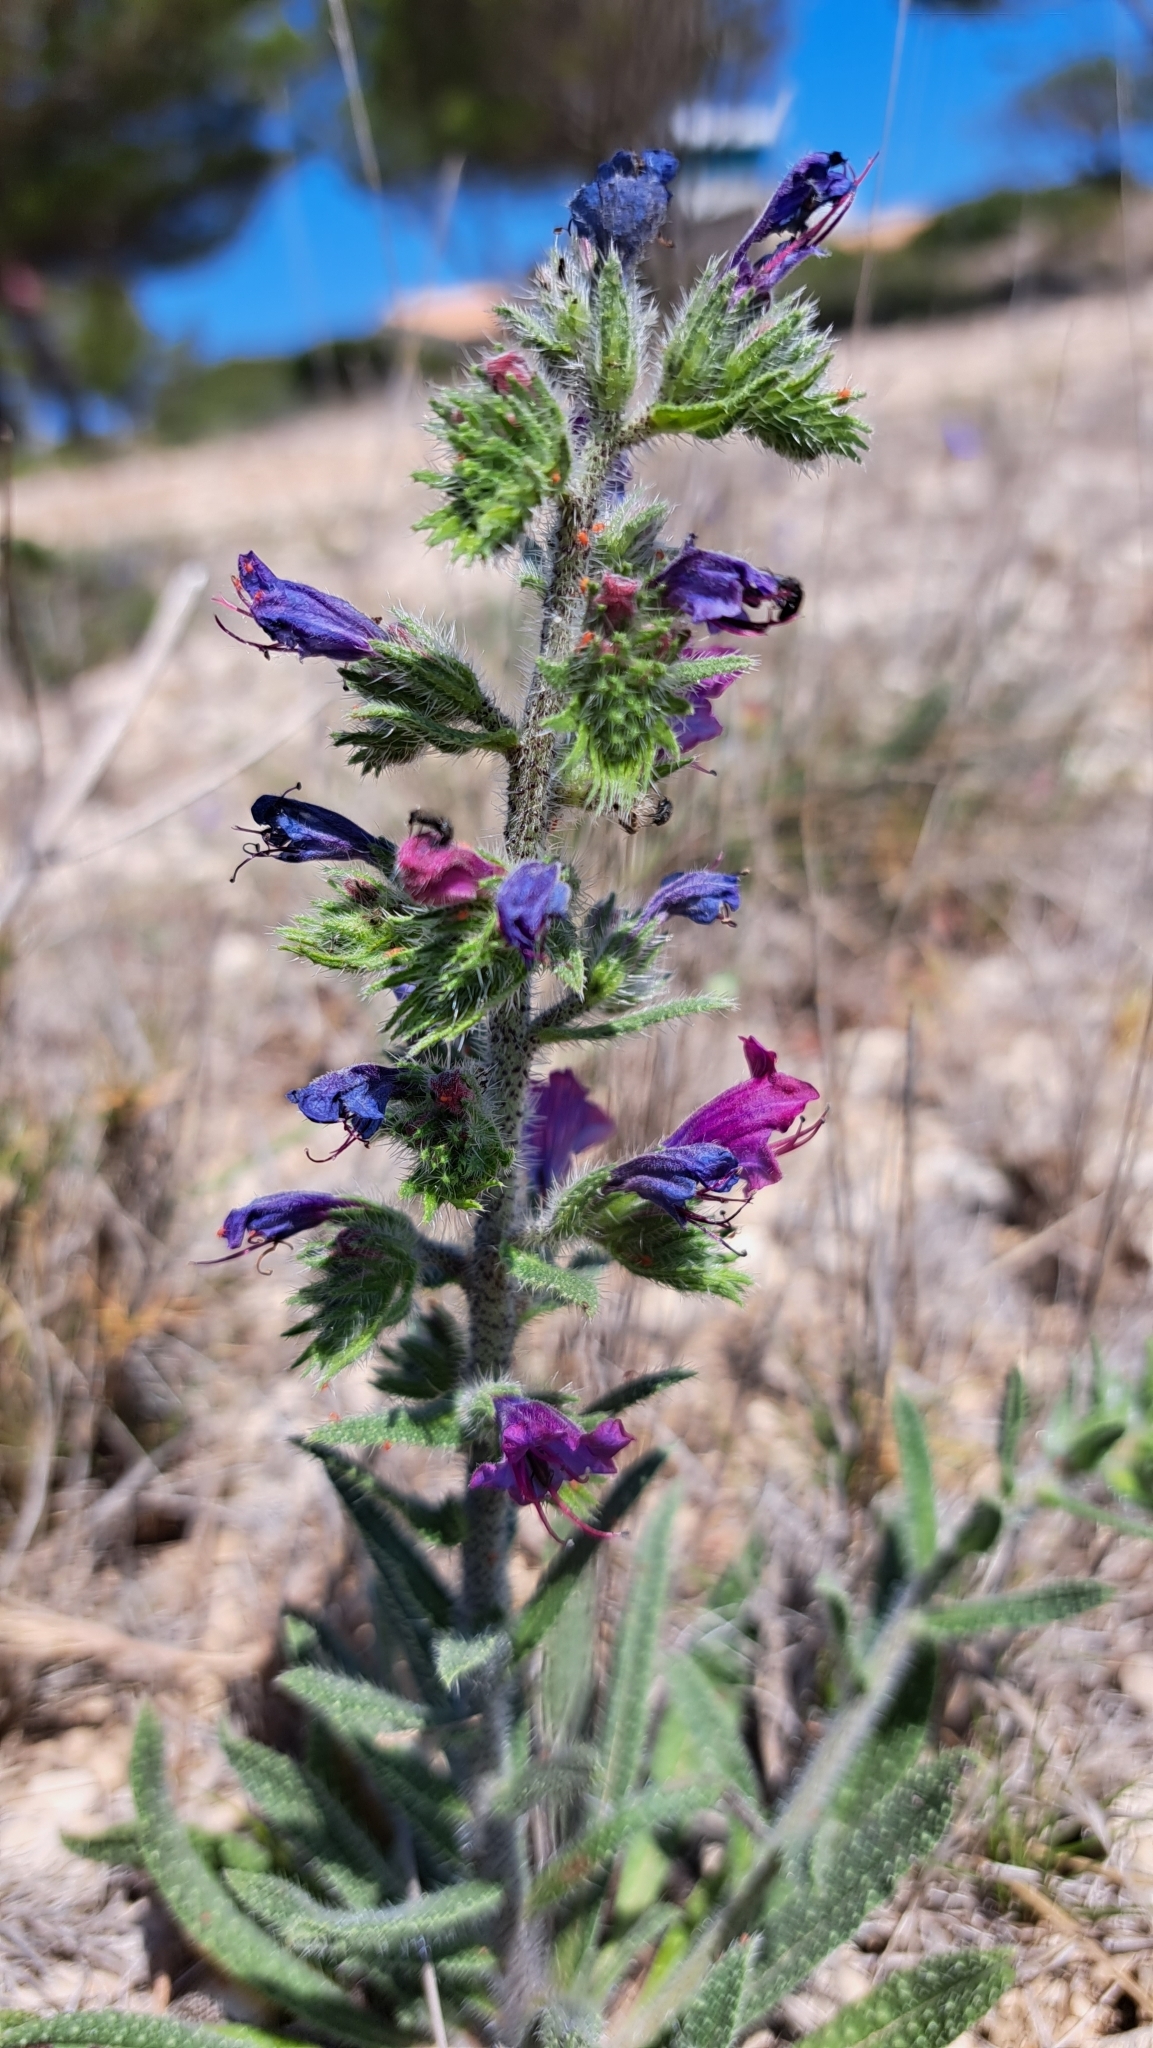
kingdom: Plantae
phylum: Tracheophyta
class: Magnoliopsida
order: Boraginales
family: Boraginaceae
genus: Echium
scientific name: Echium vulgare
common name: Common viper's bugloss
